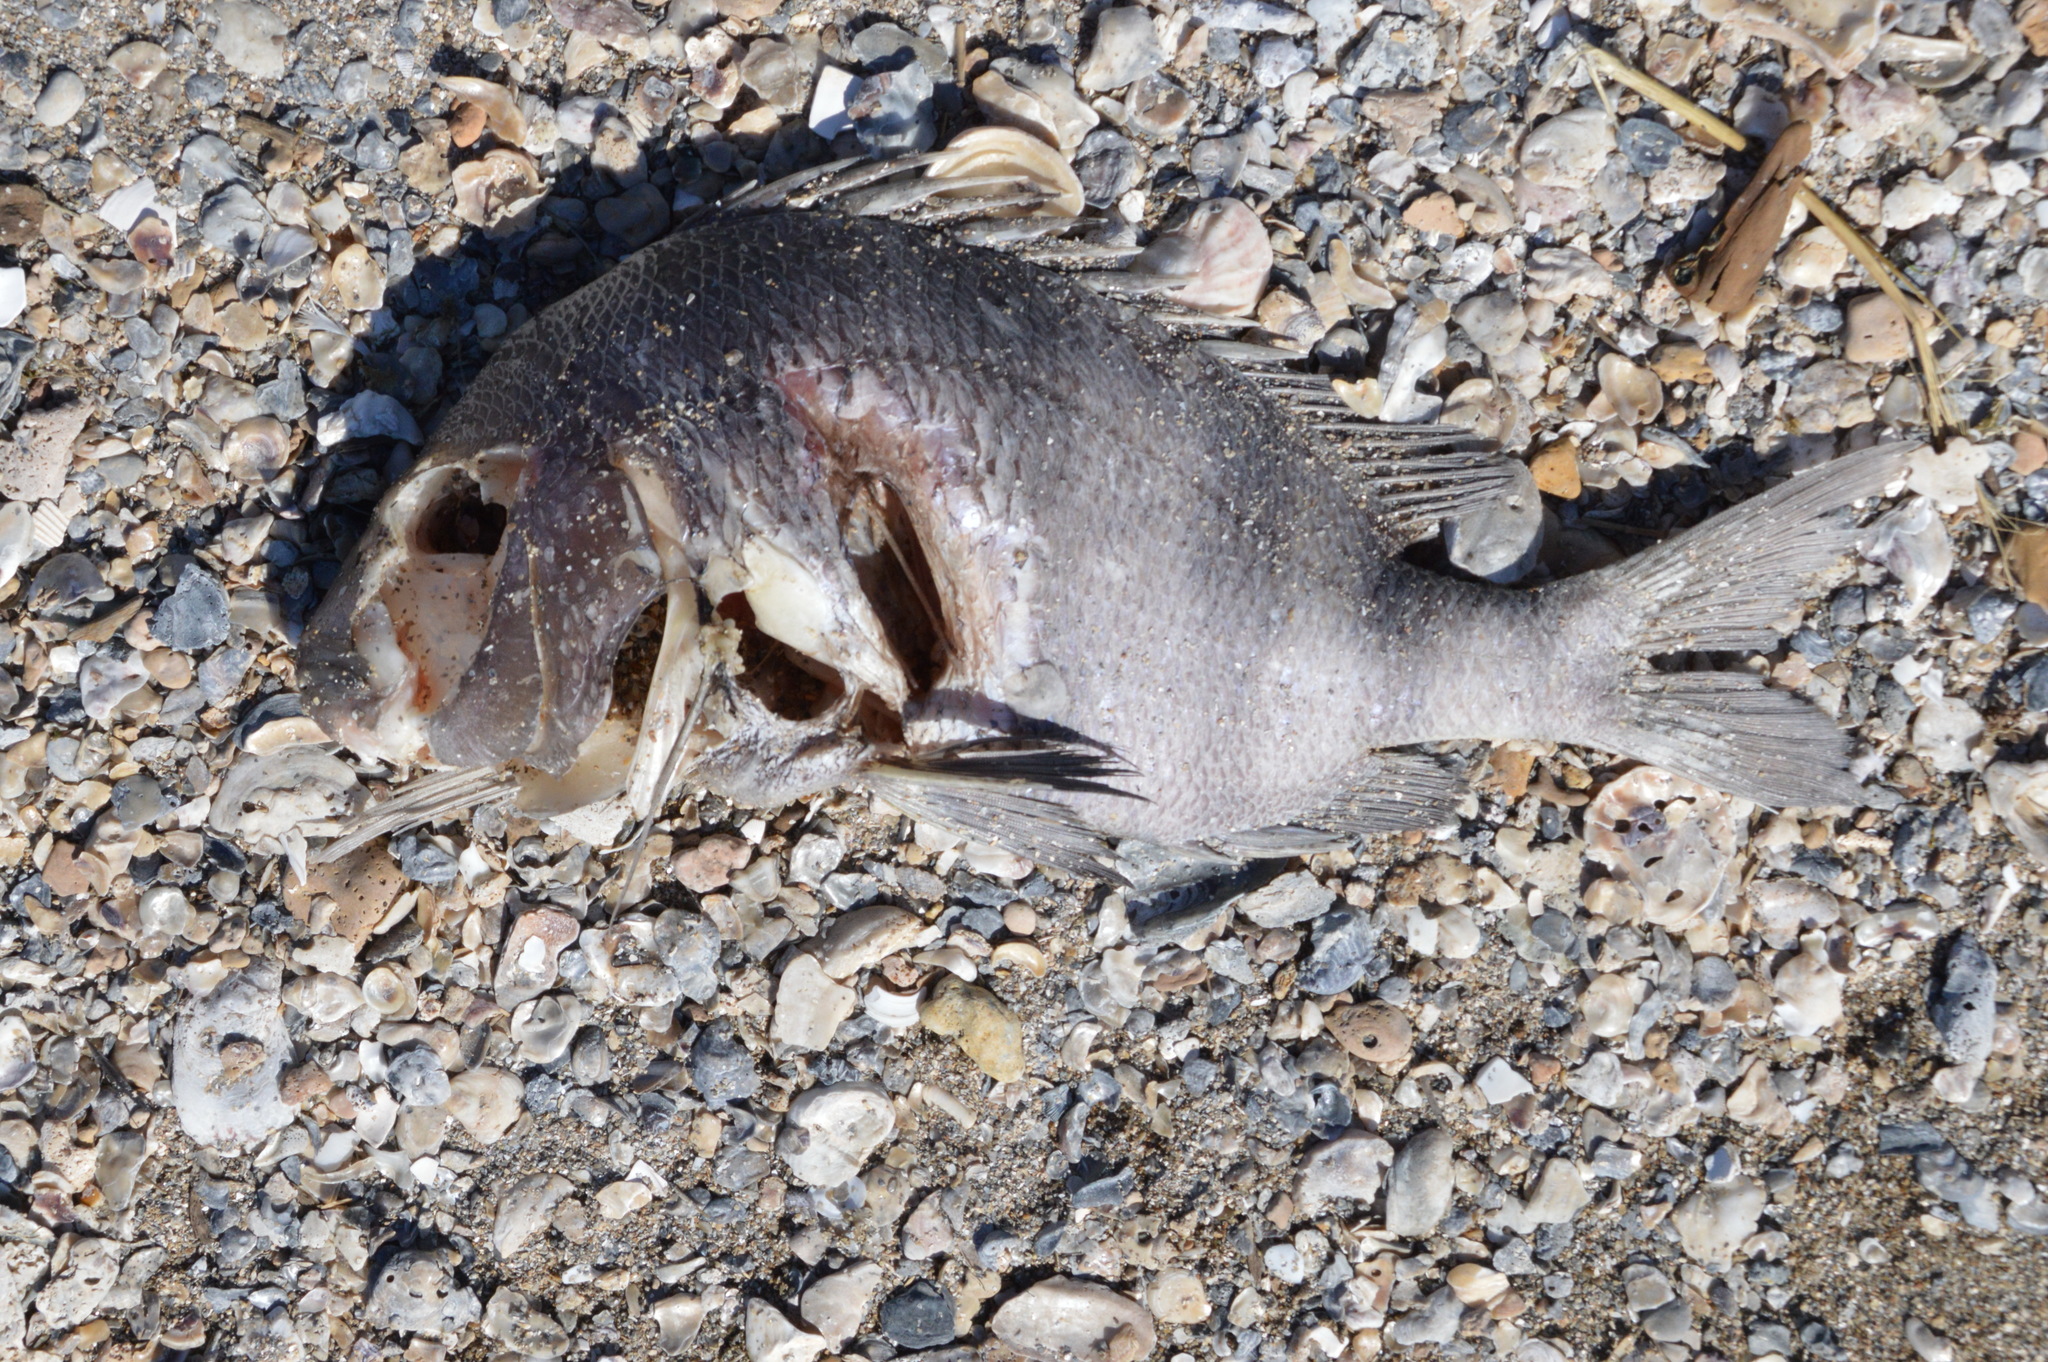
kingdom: Animalia
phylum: Chordata
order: Perciformes
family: Sparidae
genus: Archosargus
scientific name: Archosargus probatocephalus
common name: Sheepshead
